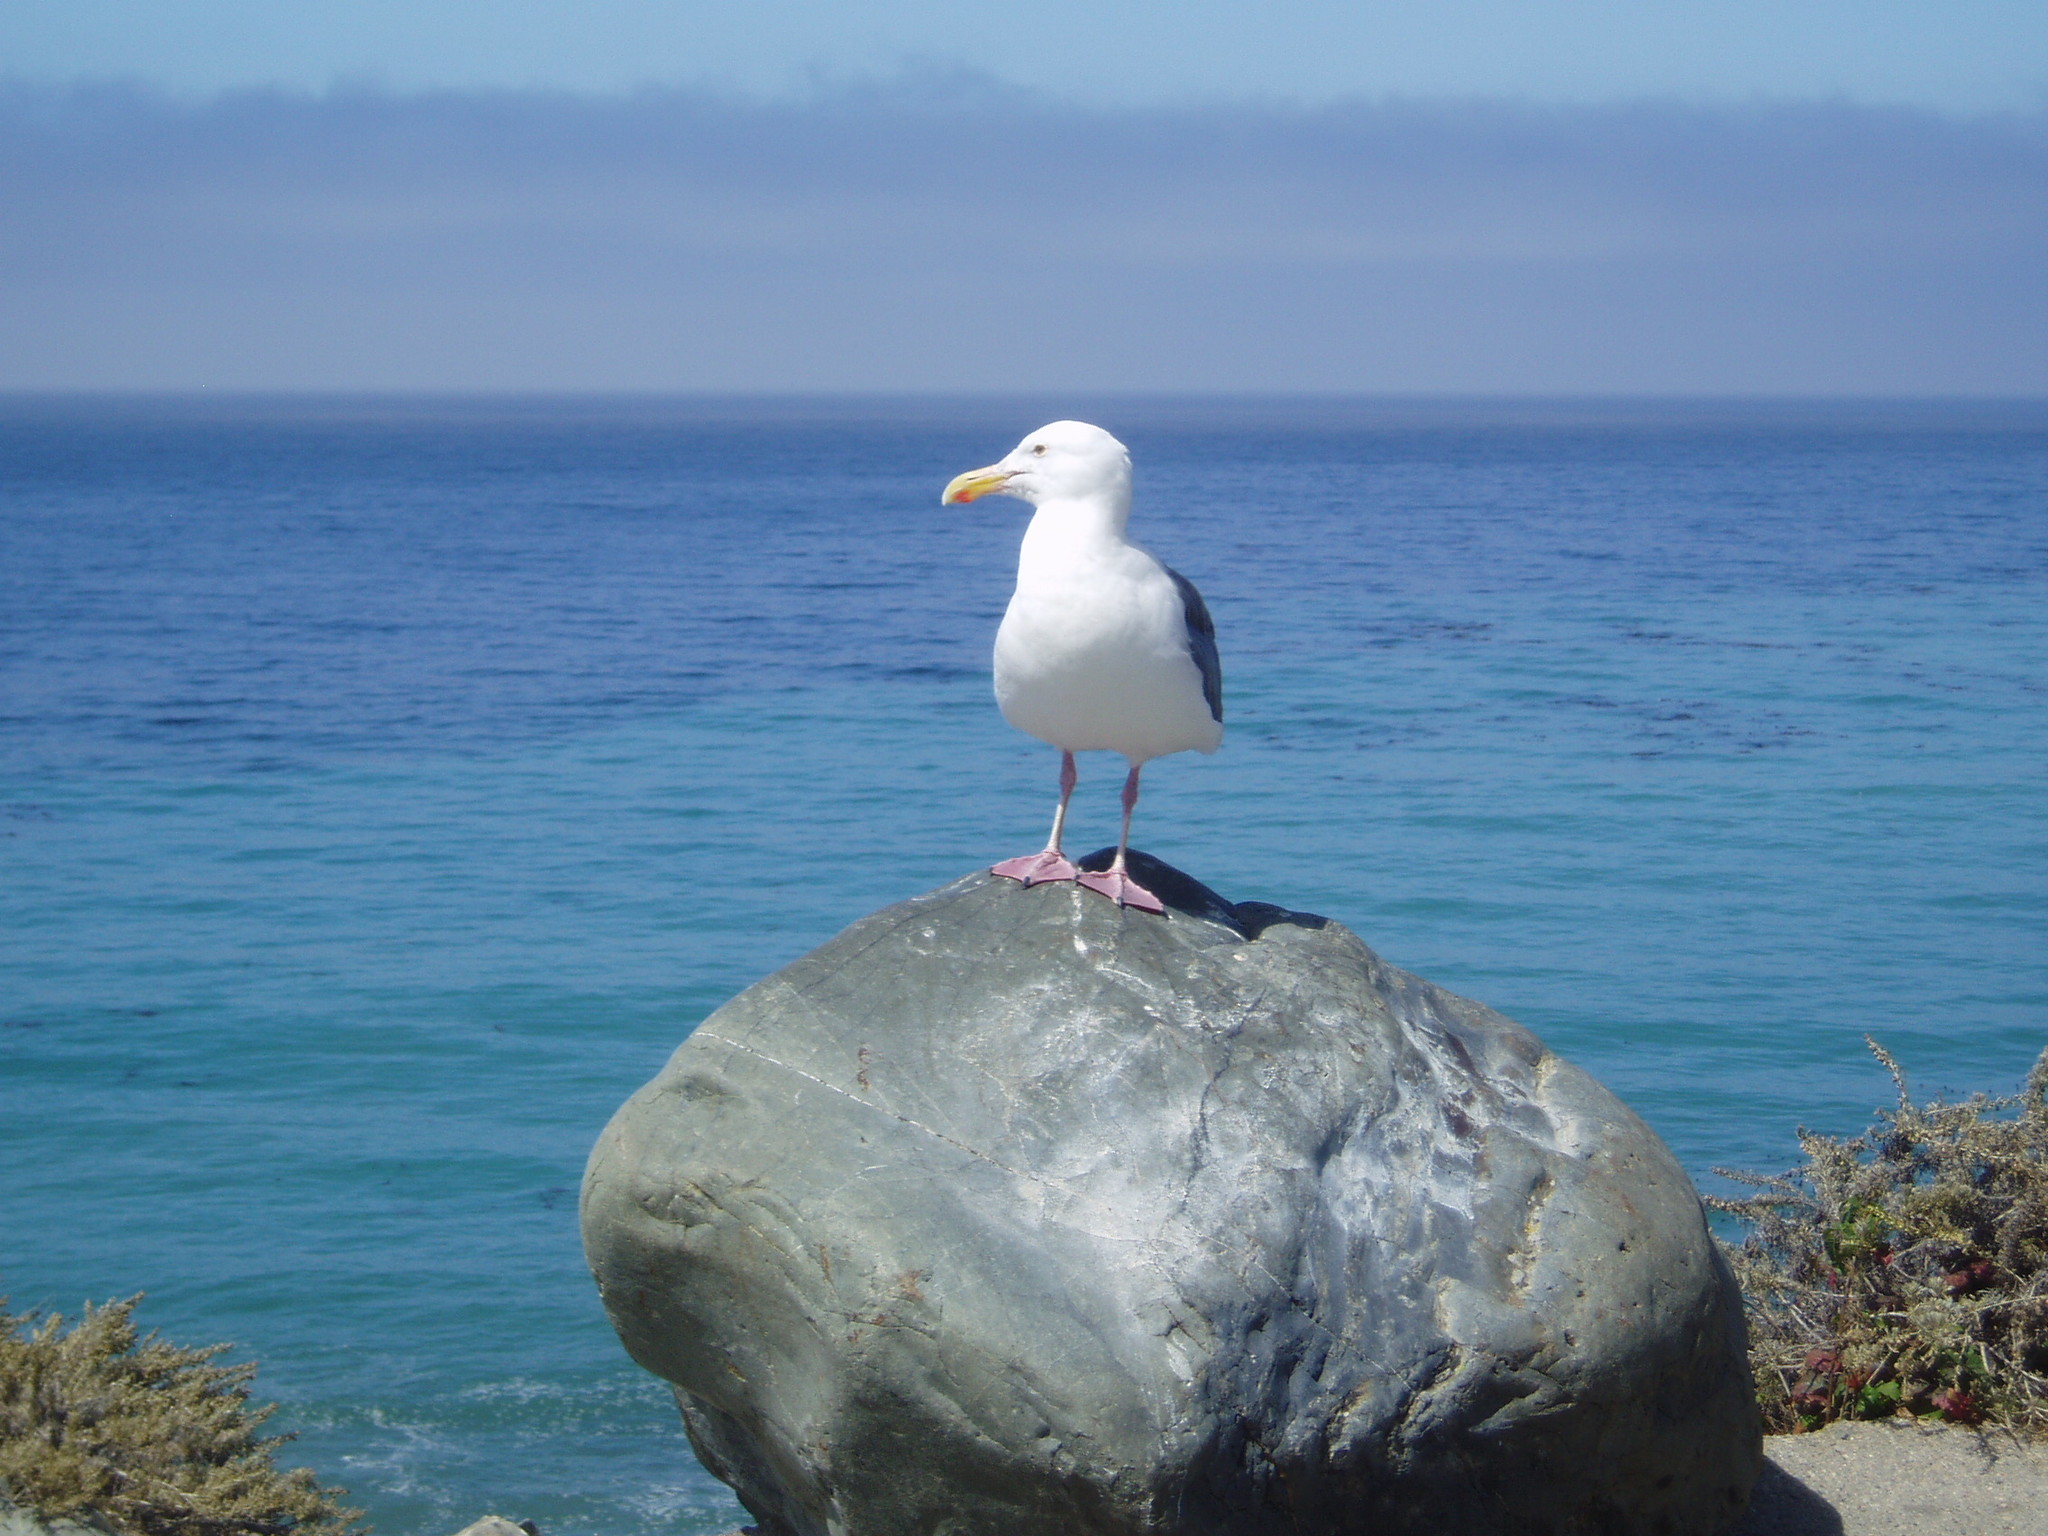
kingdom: Animalia
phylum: Chordata
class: Aves
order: Charadriiformes
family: Laridae
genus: Larus
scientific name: Larus occidentalis
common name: Western gull
